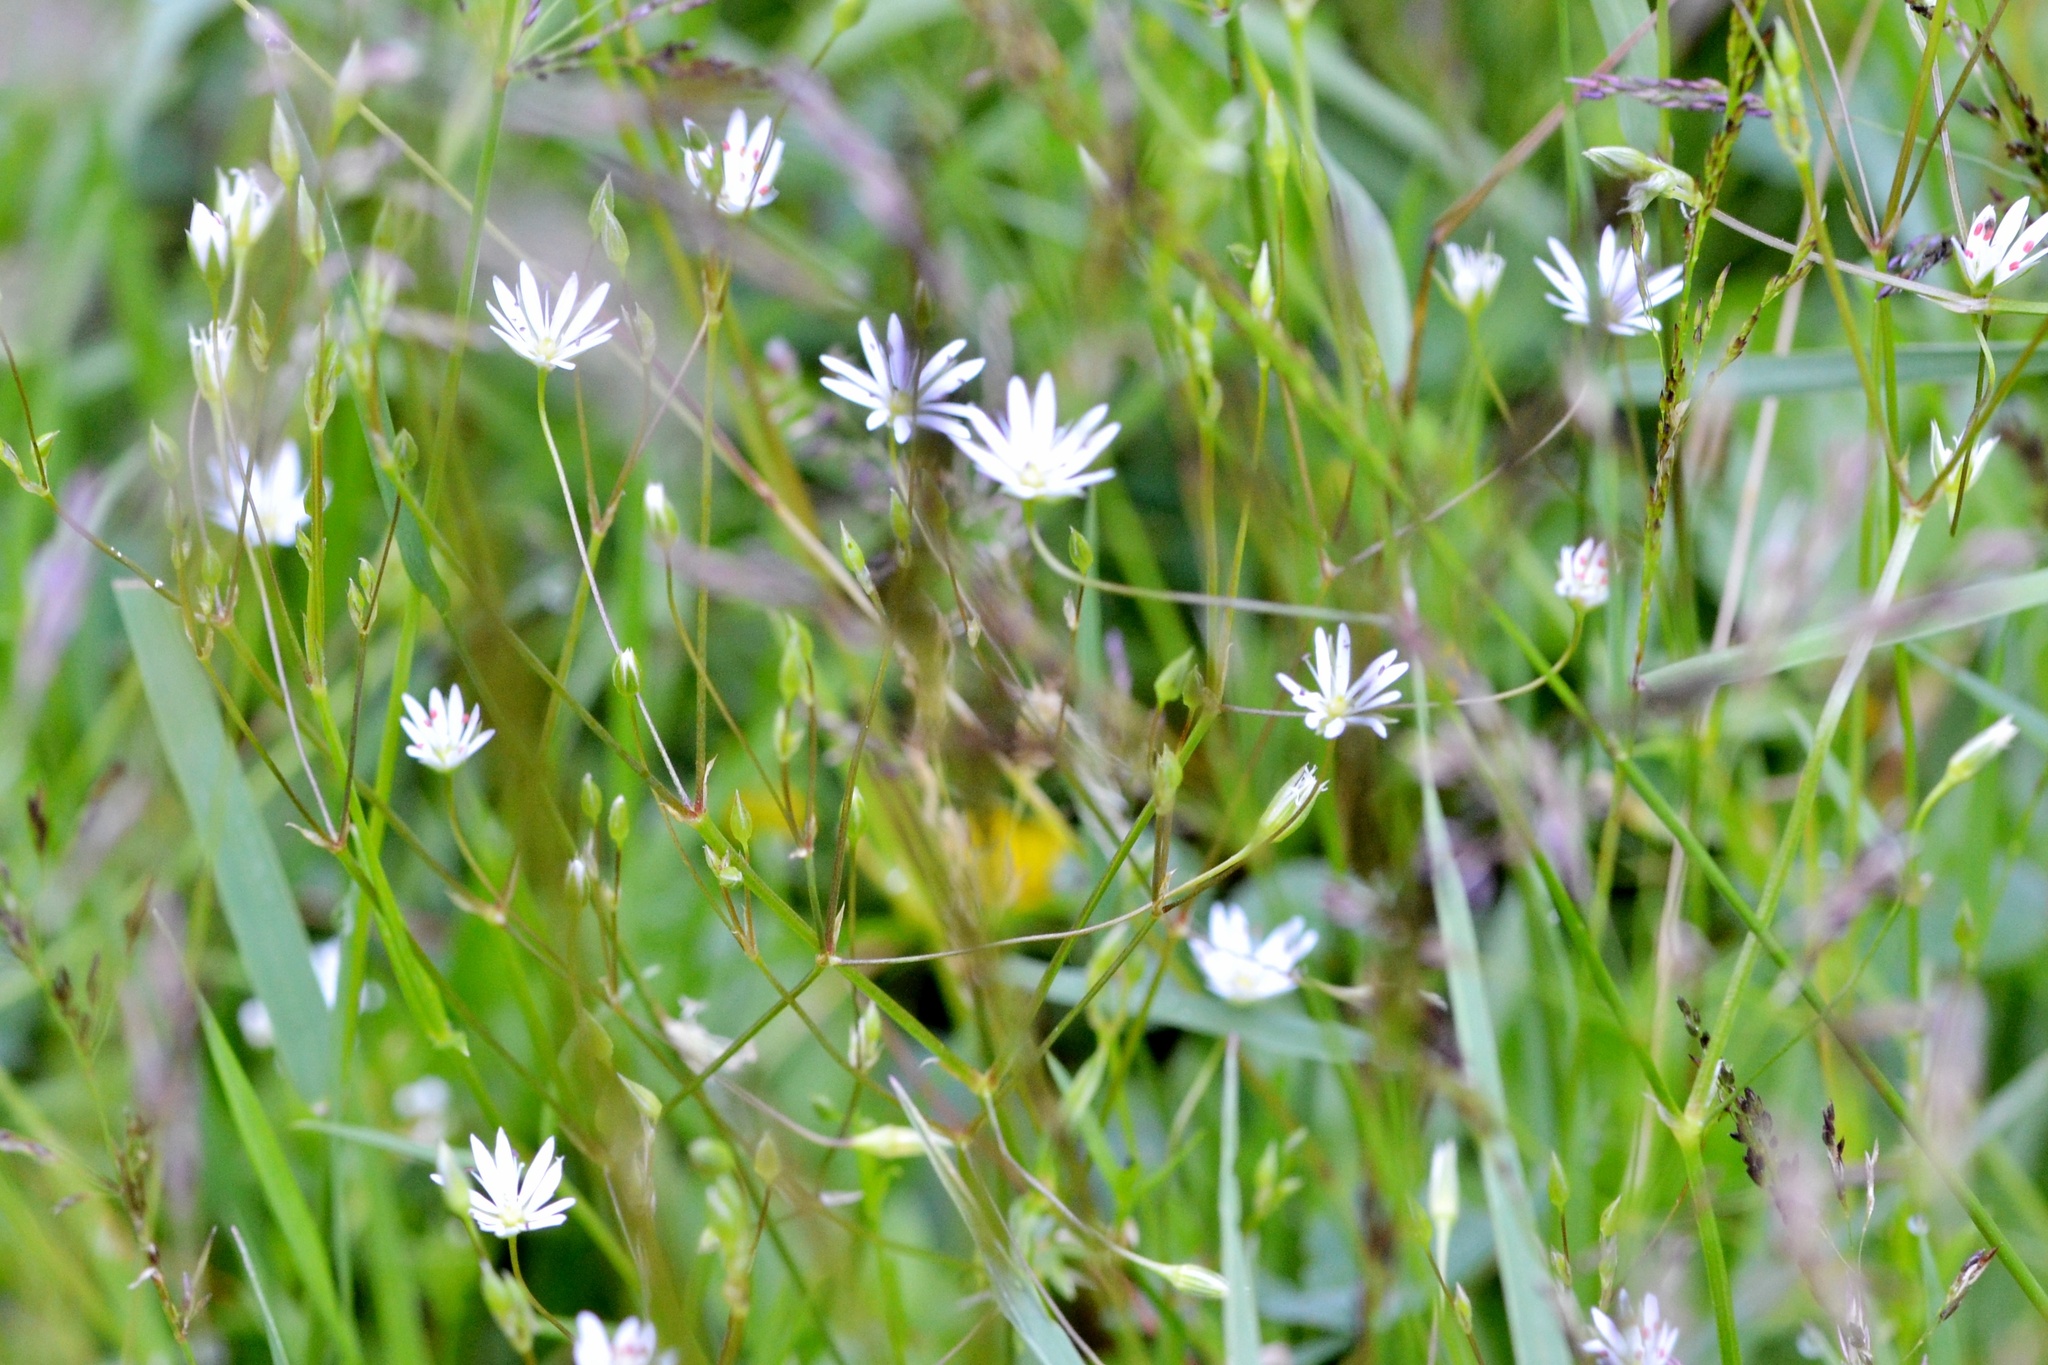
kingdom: Plantae
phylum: Tracheophyta
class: Magnoliopsida
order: Caryophyllales
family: Caryophyllaceae
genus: Stellaria
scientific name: Stellaria graminea
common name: Grass-like starwort
